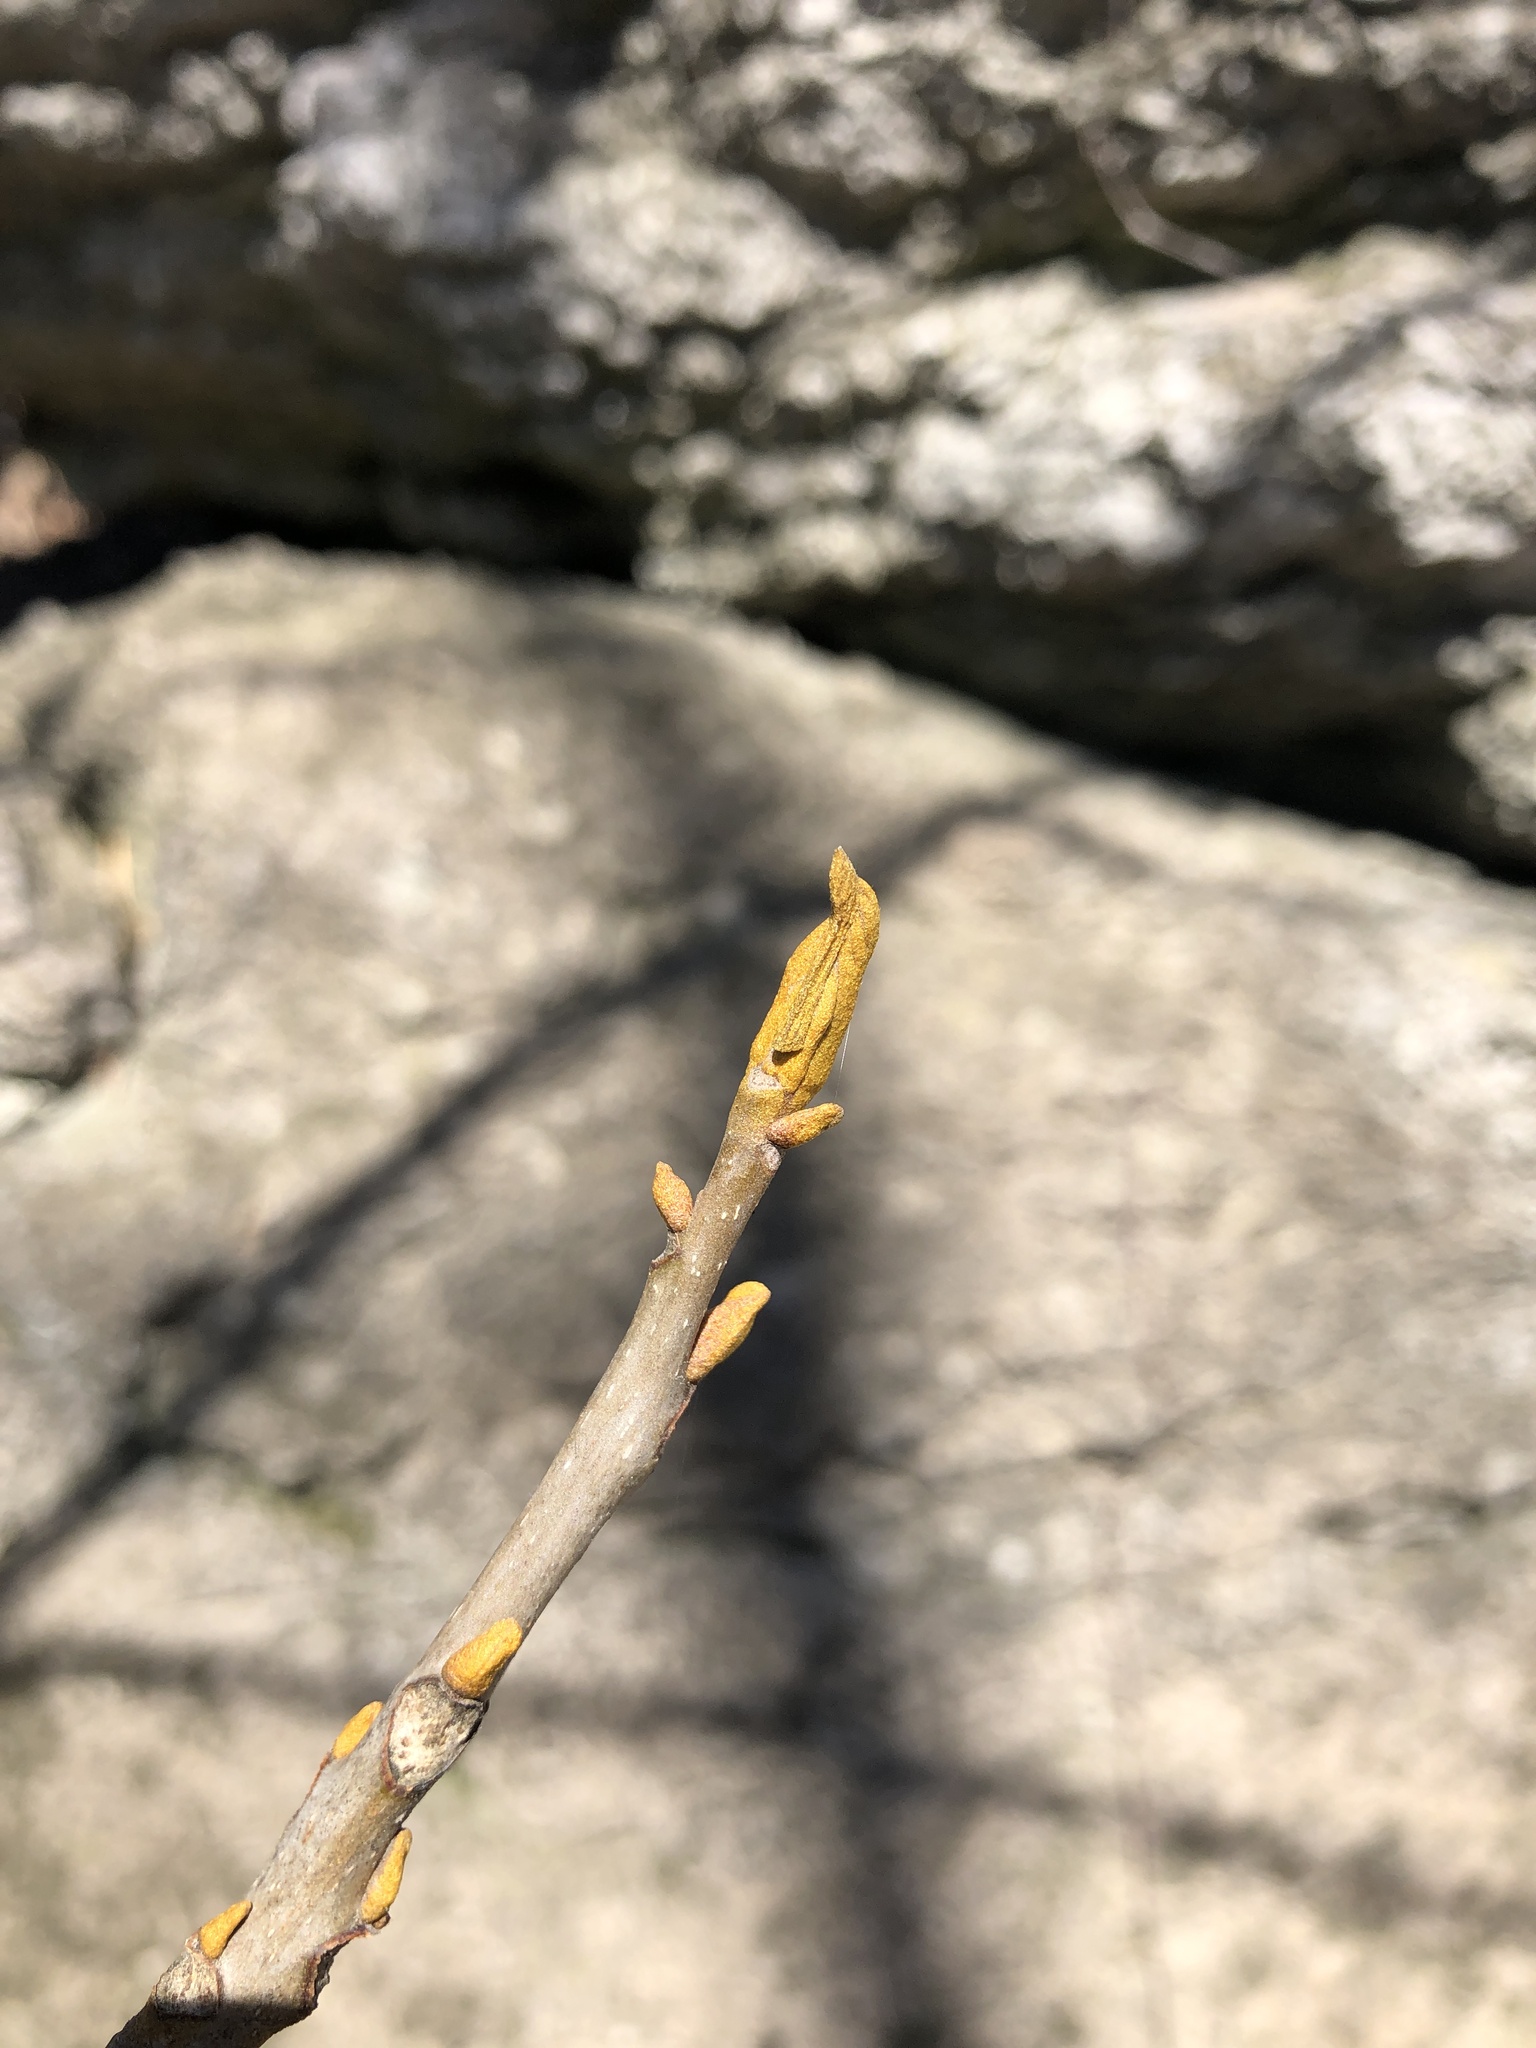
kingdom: Plantae
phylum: Tracheophyta
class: Magnoliopsida
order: Fagales
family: Juglandaceae
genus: Carya
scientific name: Carya cordiformis
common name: Bitternut hickory
